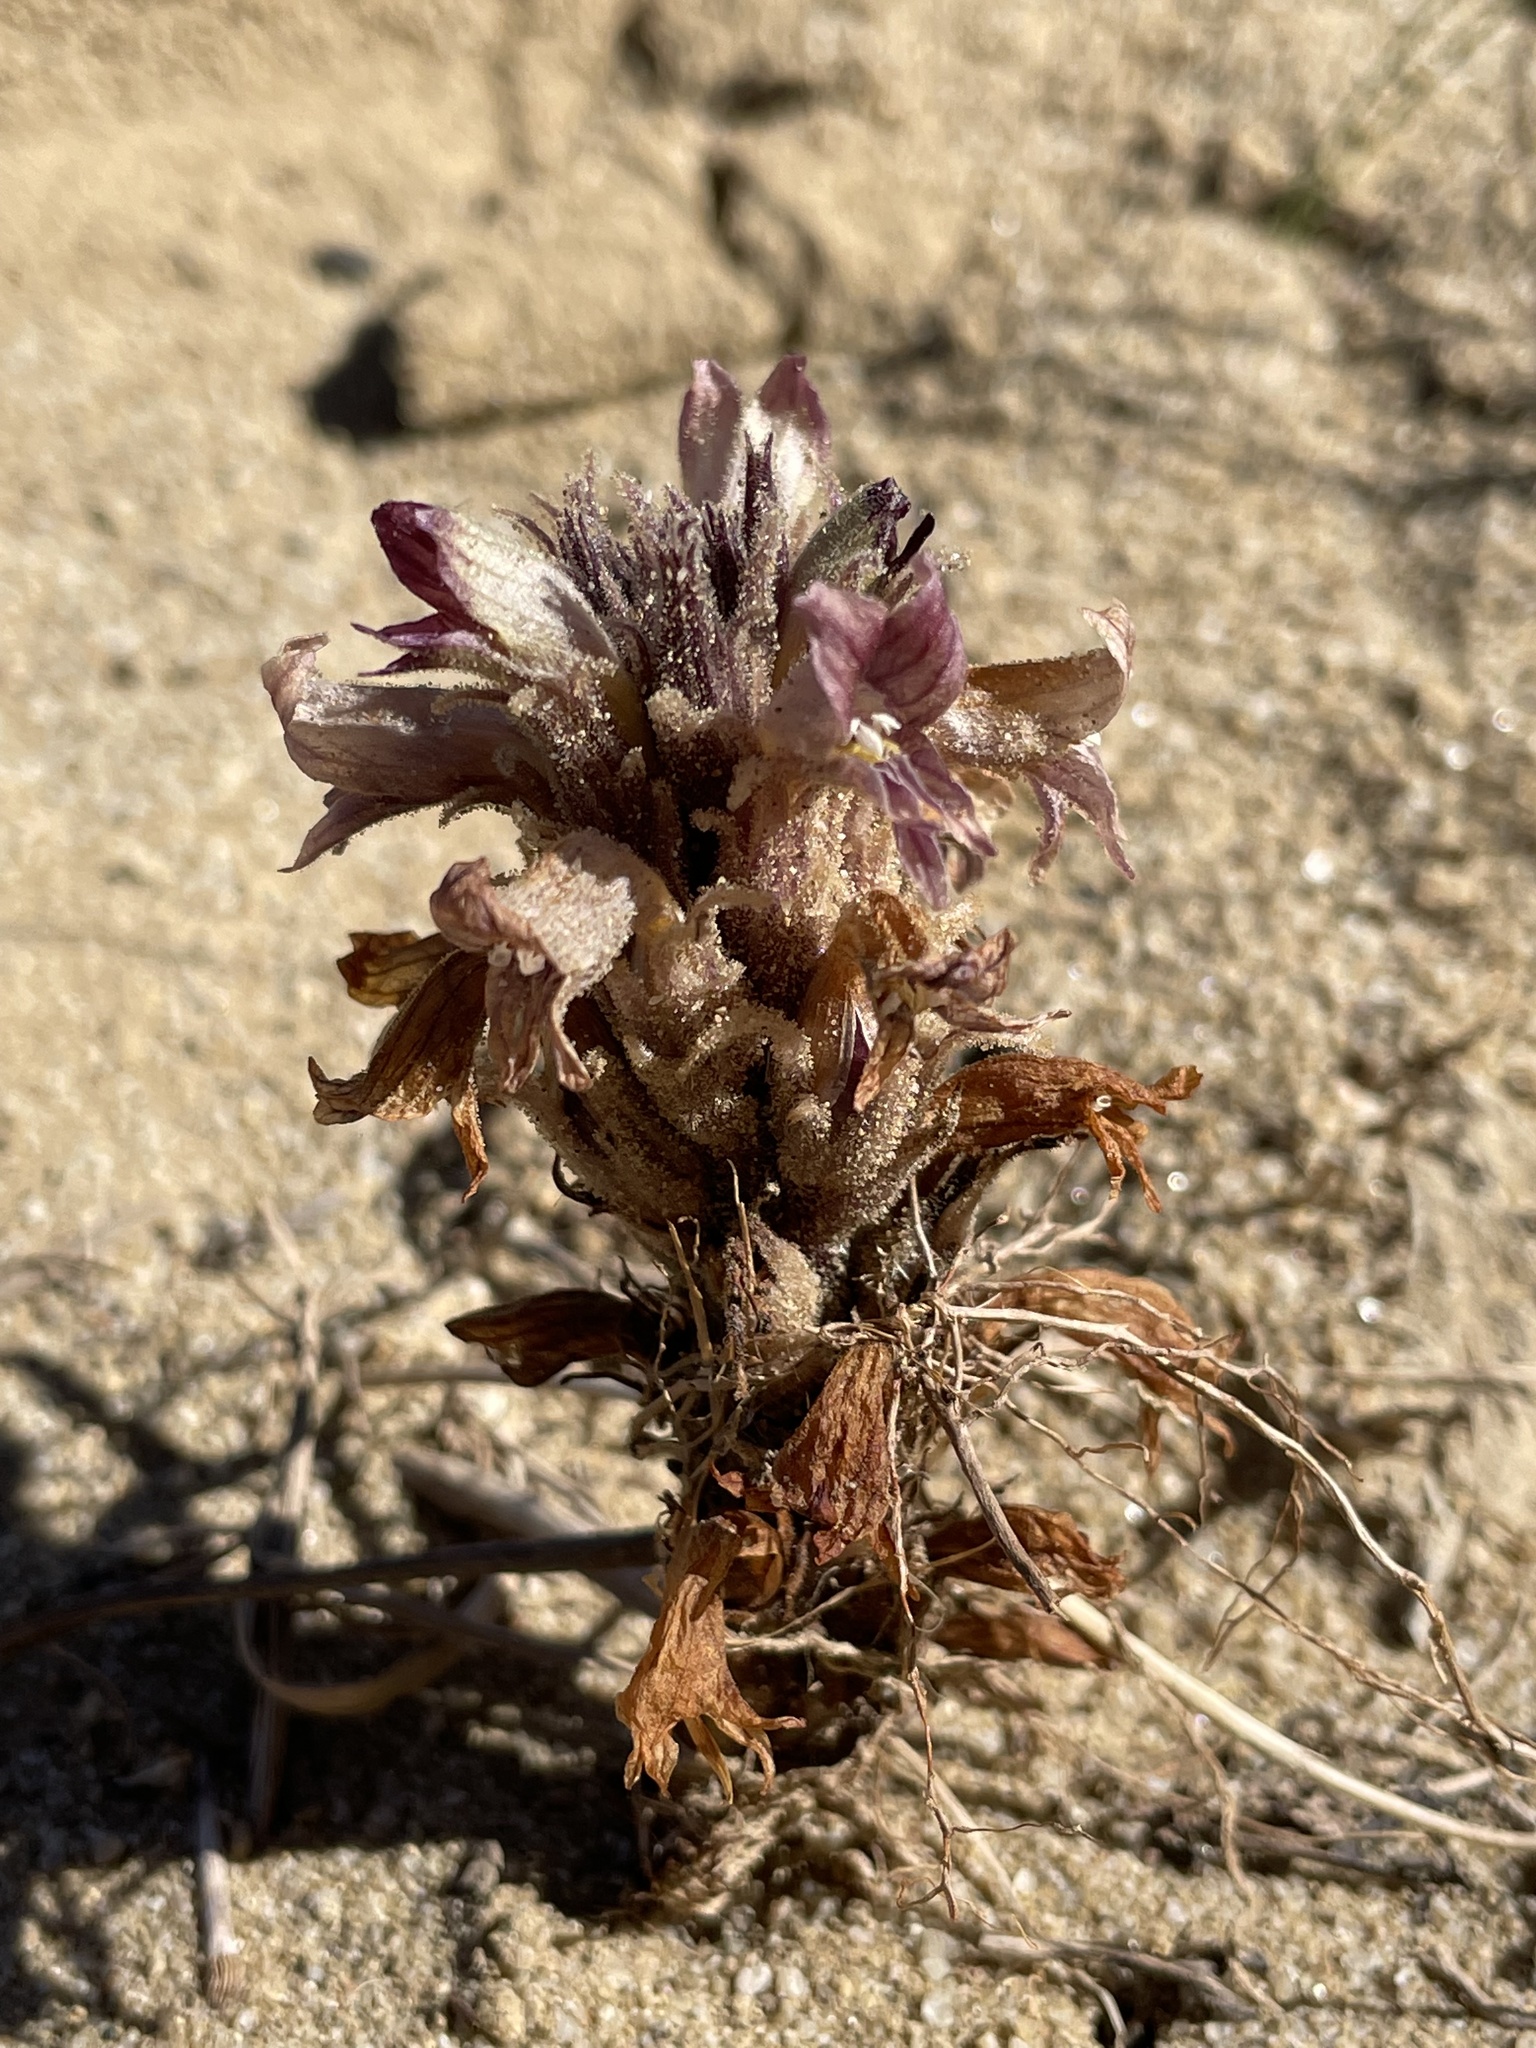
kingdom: Plantae
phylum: Tracheophyta
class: Magnoliopsida
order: Lamiales
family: Orobanchaceae
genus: Aphyllon
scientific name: Aphyllon multiflorum
